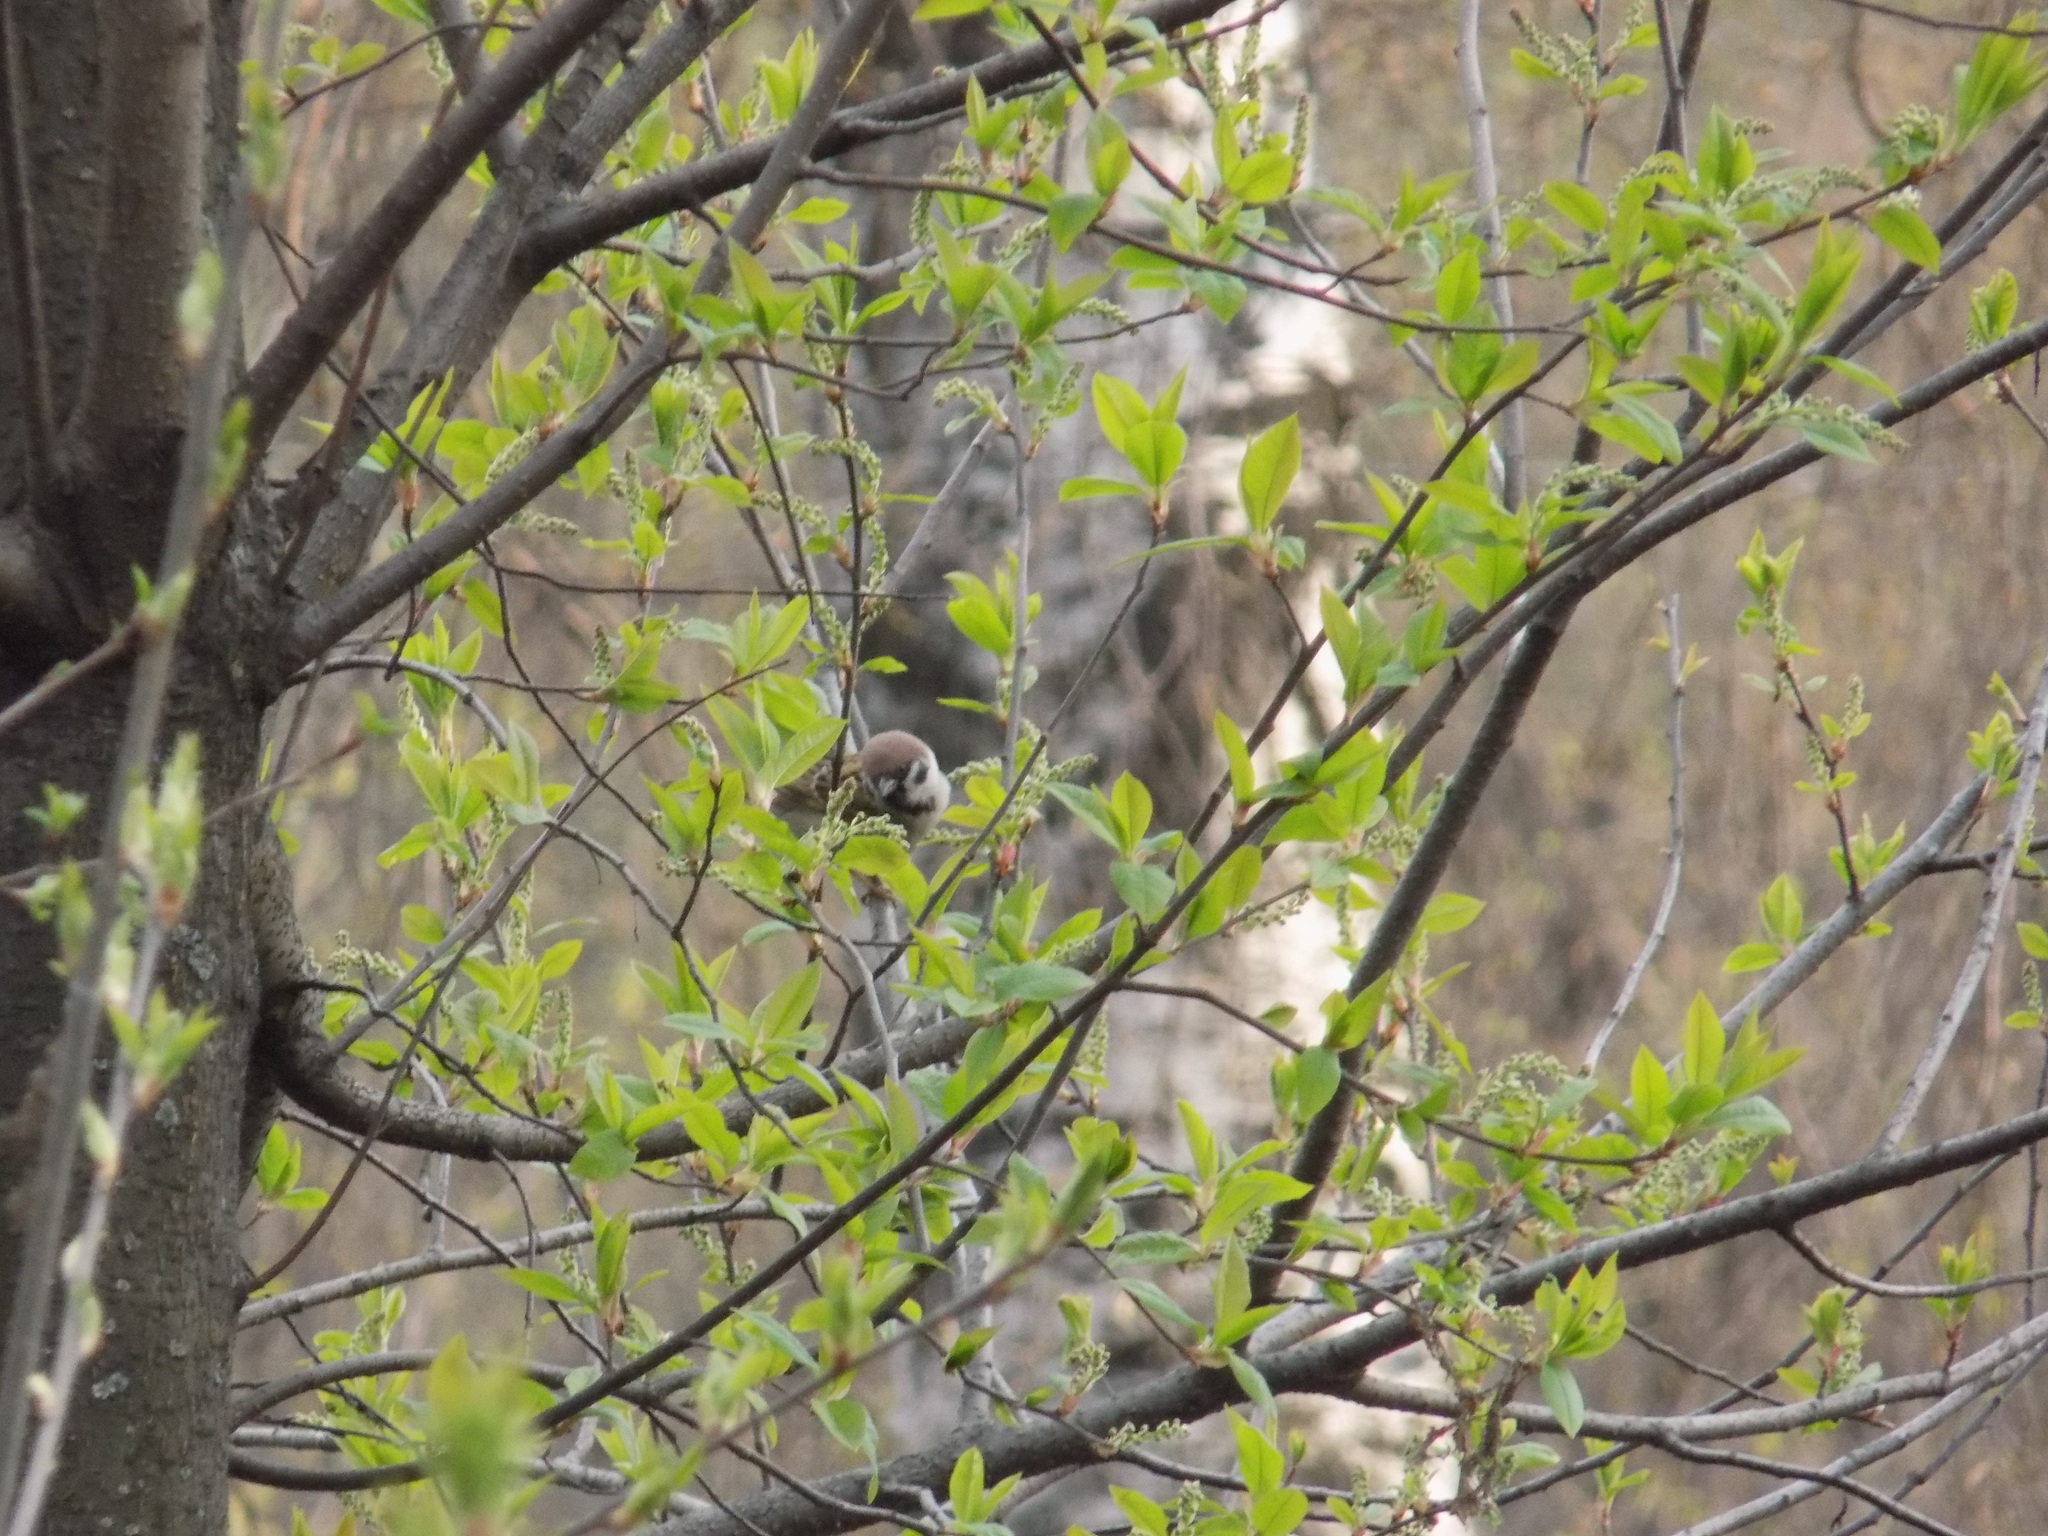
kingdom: Animalia
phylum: Chordata
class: Aves
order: Passeriformes
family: Passeridae
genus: Passer
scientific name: Passer montanus
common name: Eurasian tree sparrow
